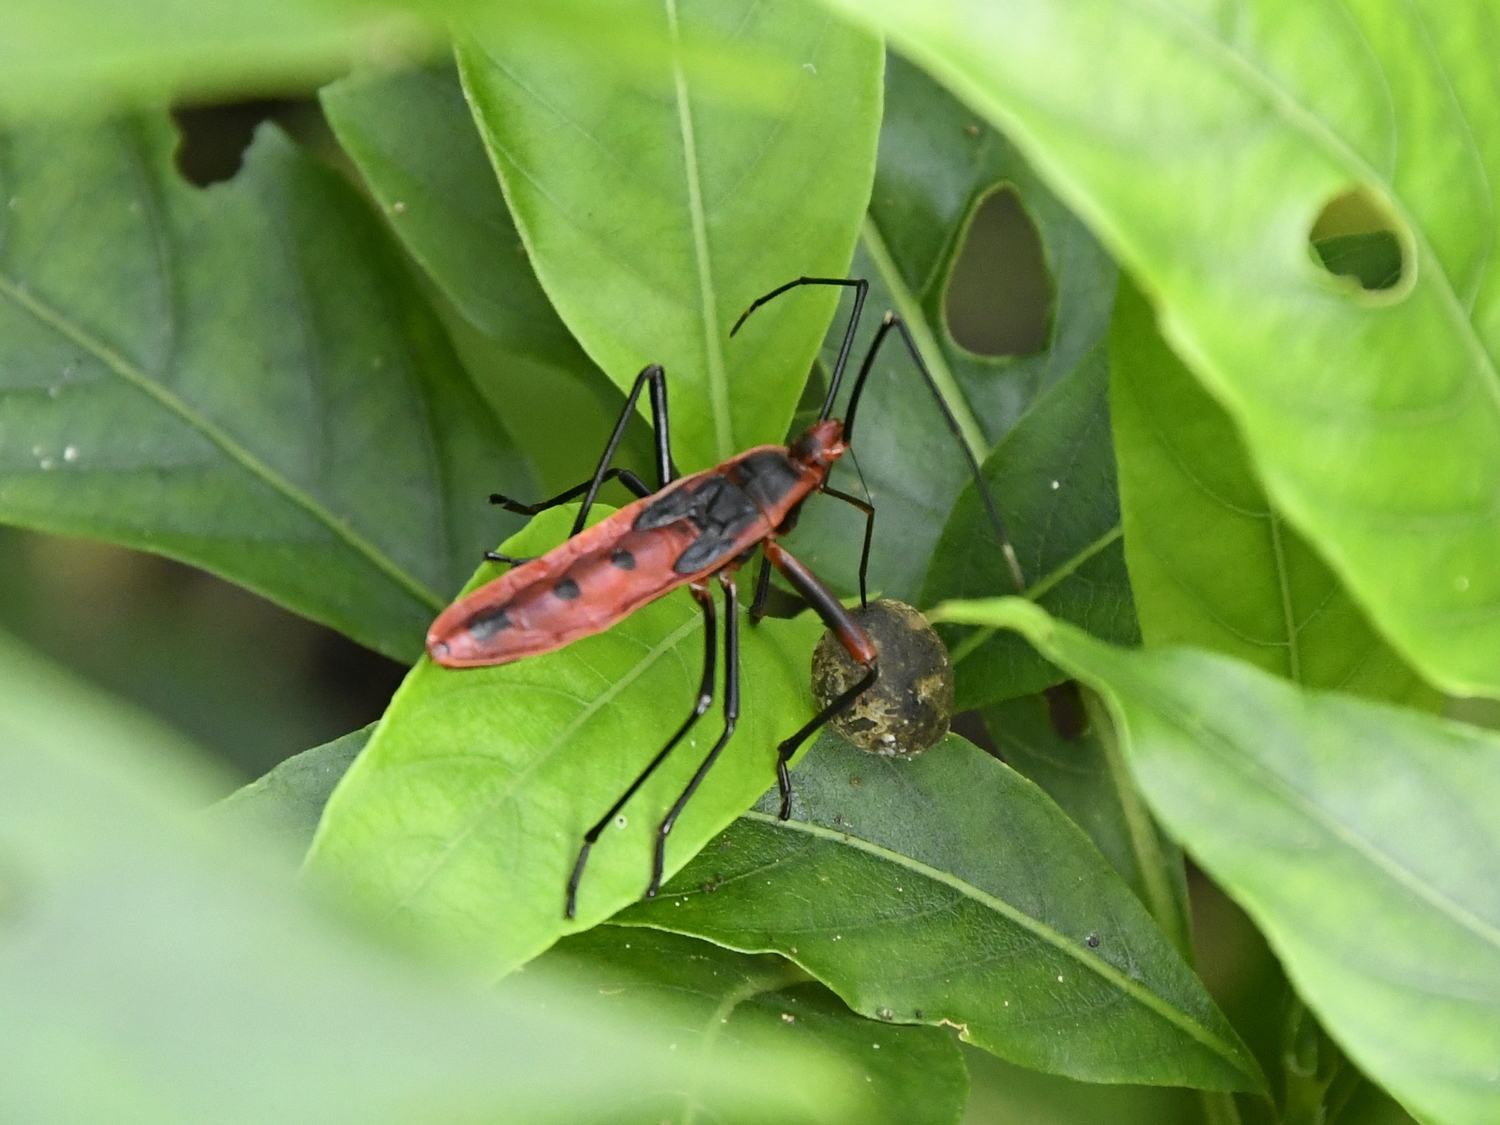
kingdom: Animalia
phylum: Arthropoda
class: Insecta
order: Hemiptera
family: Largidae
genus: Macrocheraia
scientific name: Macrocheraia grandis
